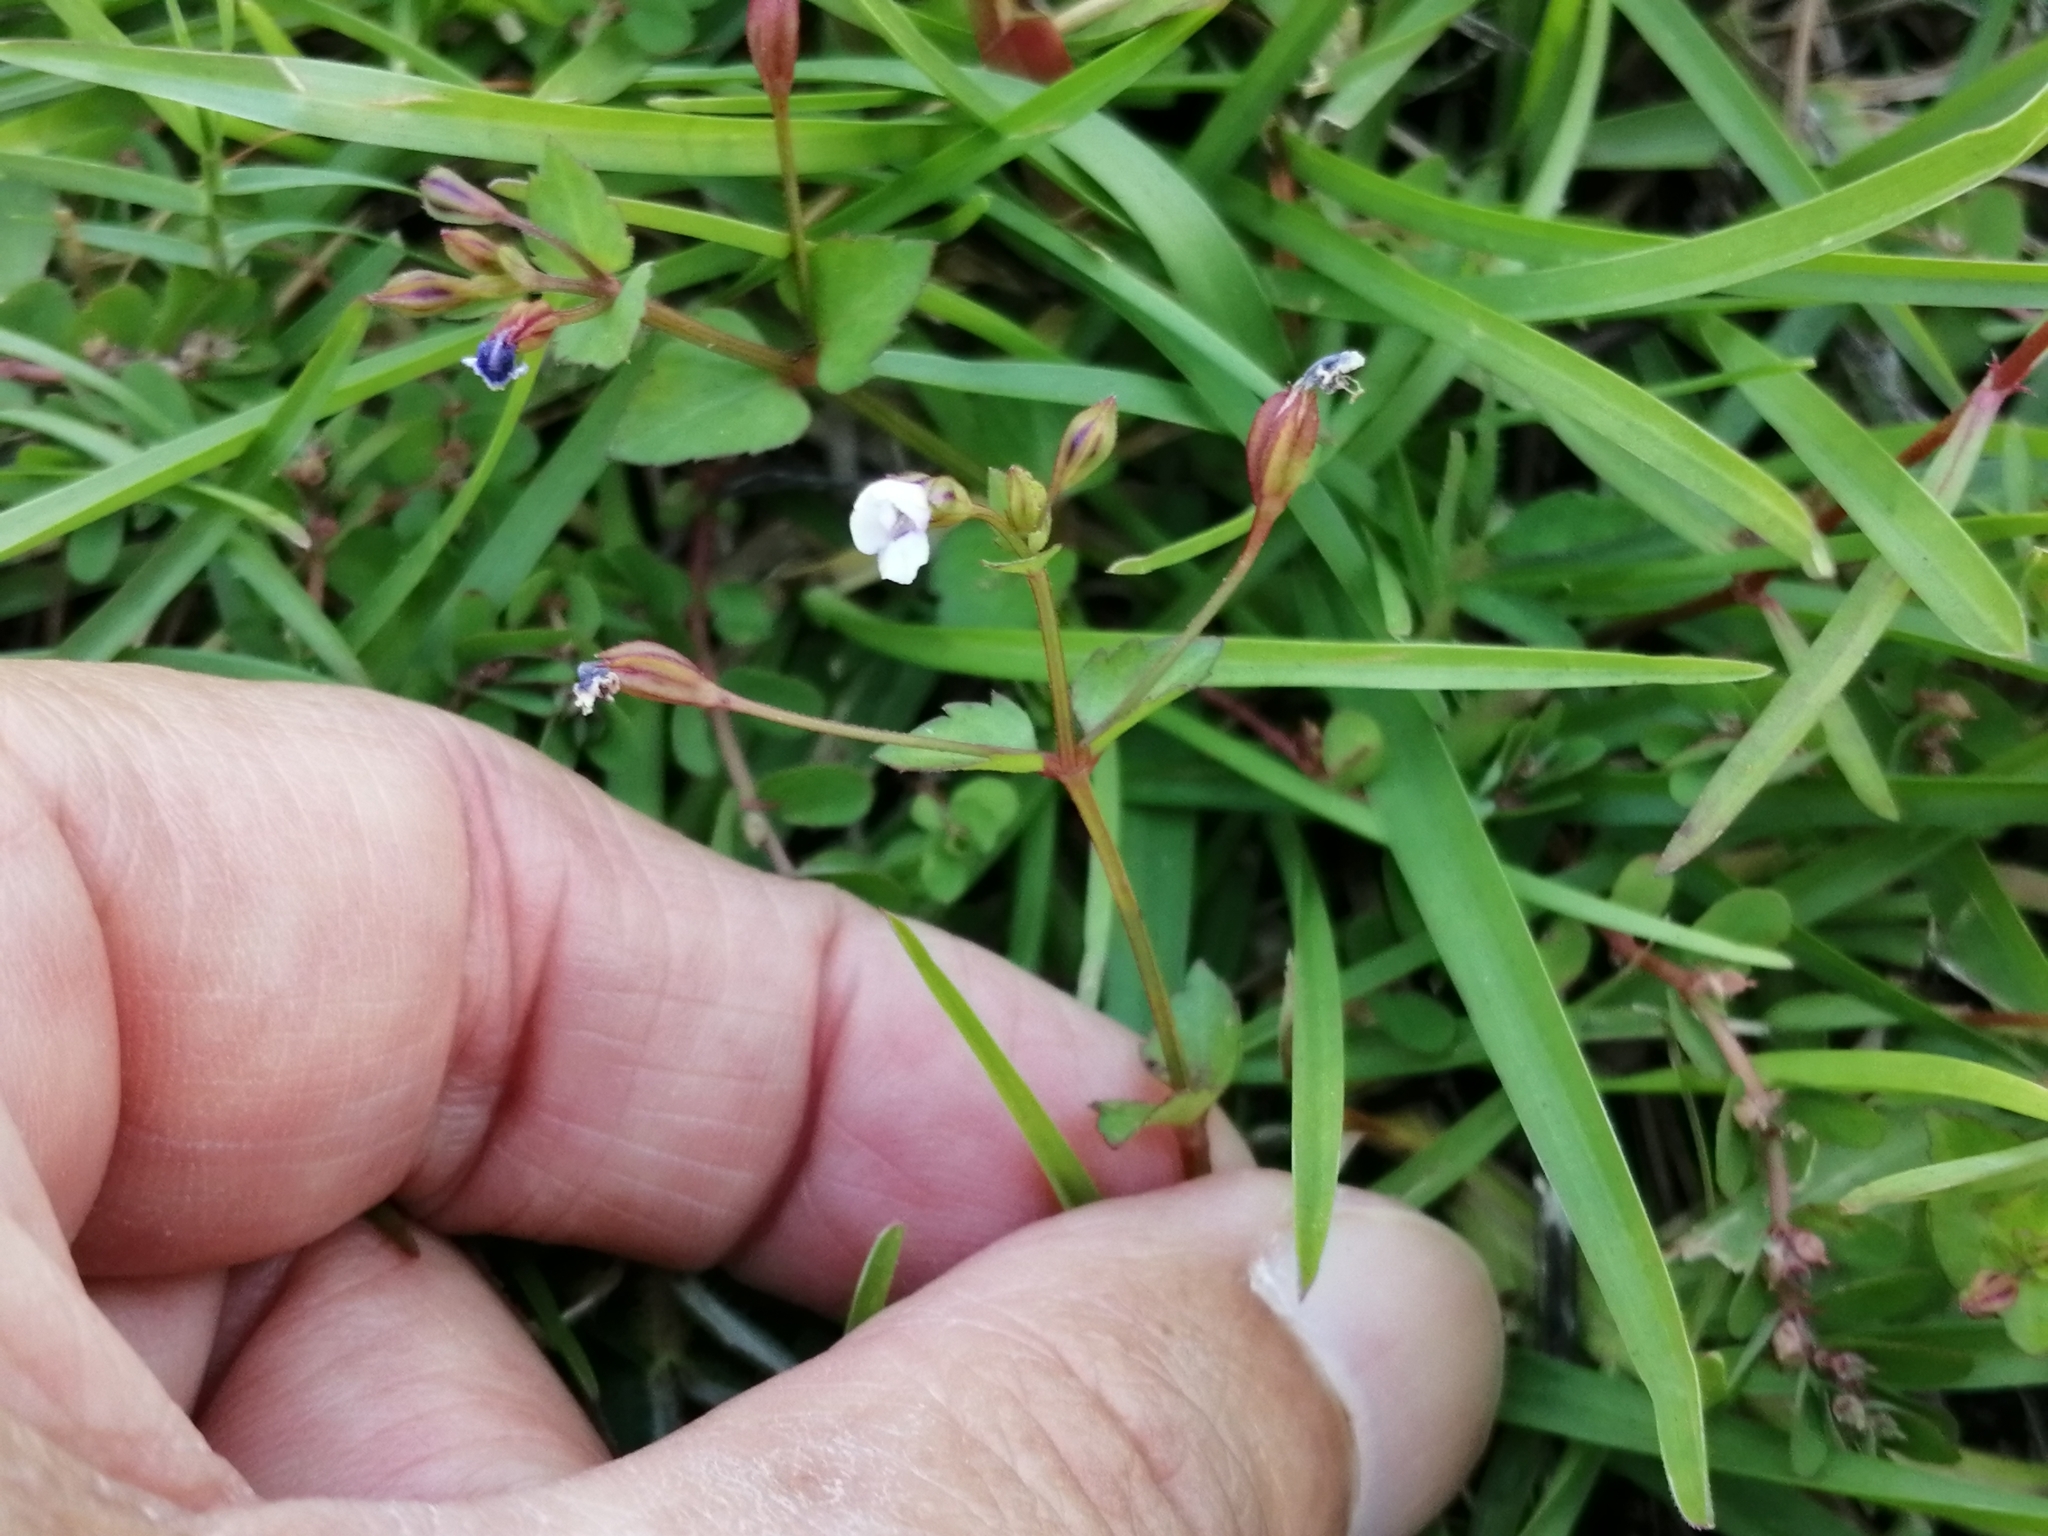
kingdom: Plantae
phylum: Tracheophyta
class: Magnoliopsida
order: Lamiales
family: Linderniaceae
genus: Torenia
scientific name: Torenia crustacea
